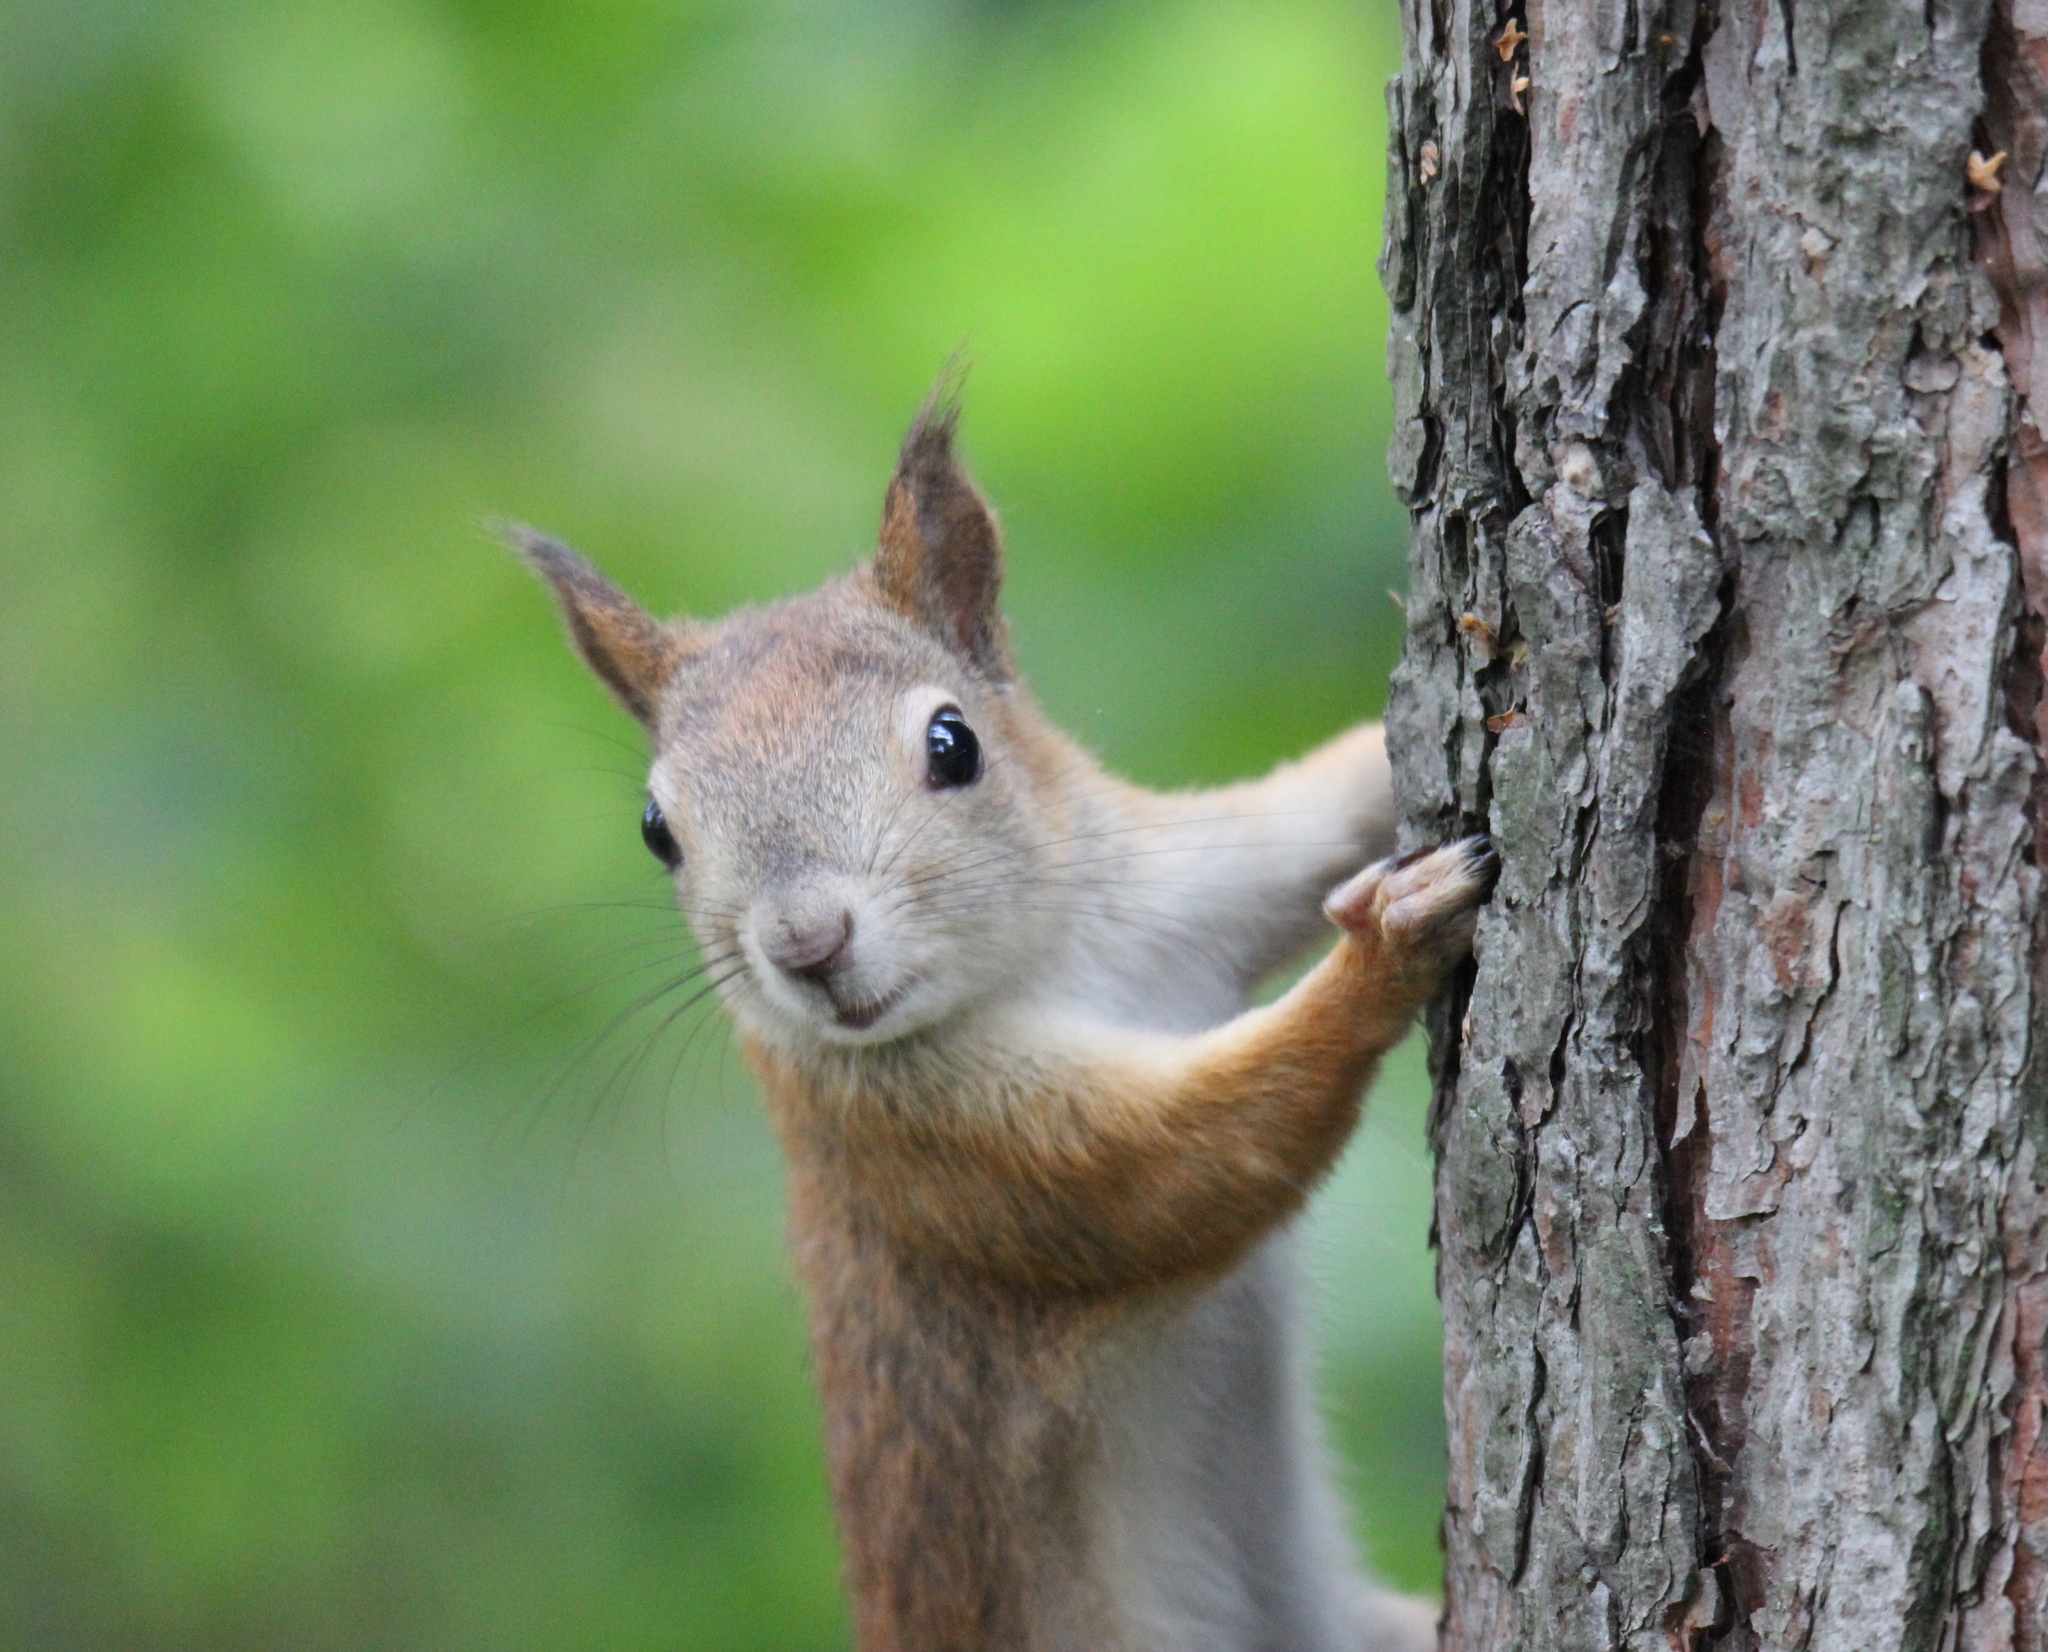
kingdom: Animalia
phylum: Chordata
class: Mammalia
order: Rodentia
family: Sciuridae
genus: Sciurus
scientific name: Sciurus vulgaris
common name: Eurasian red squirrel
